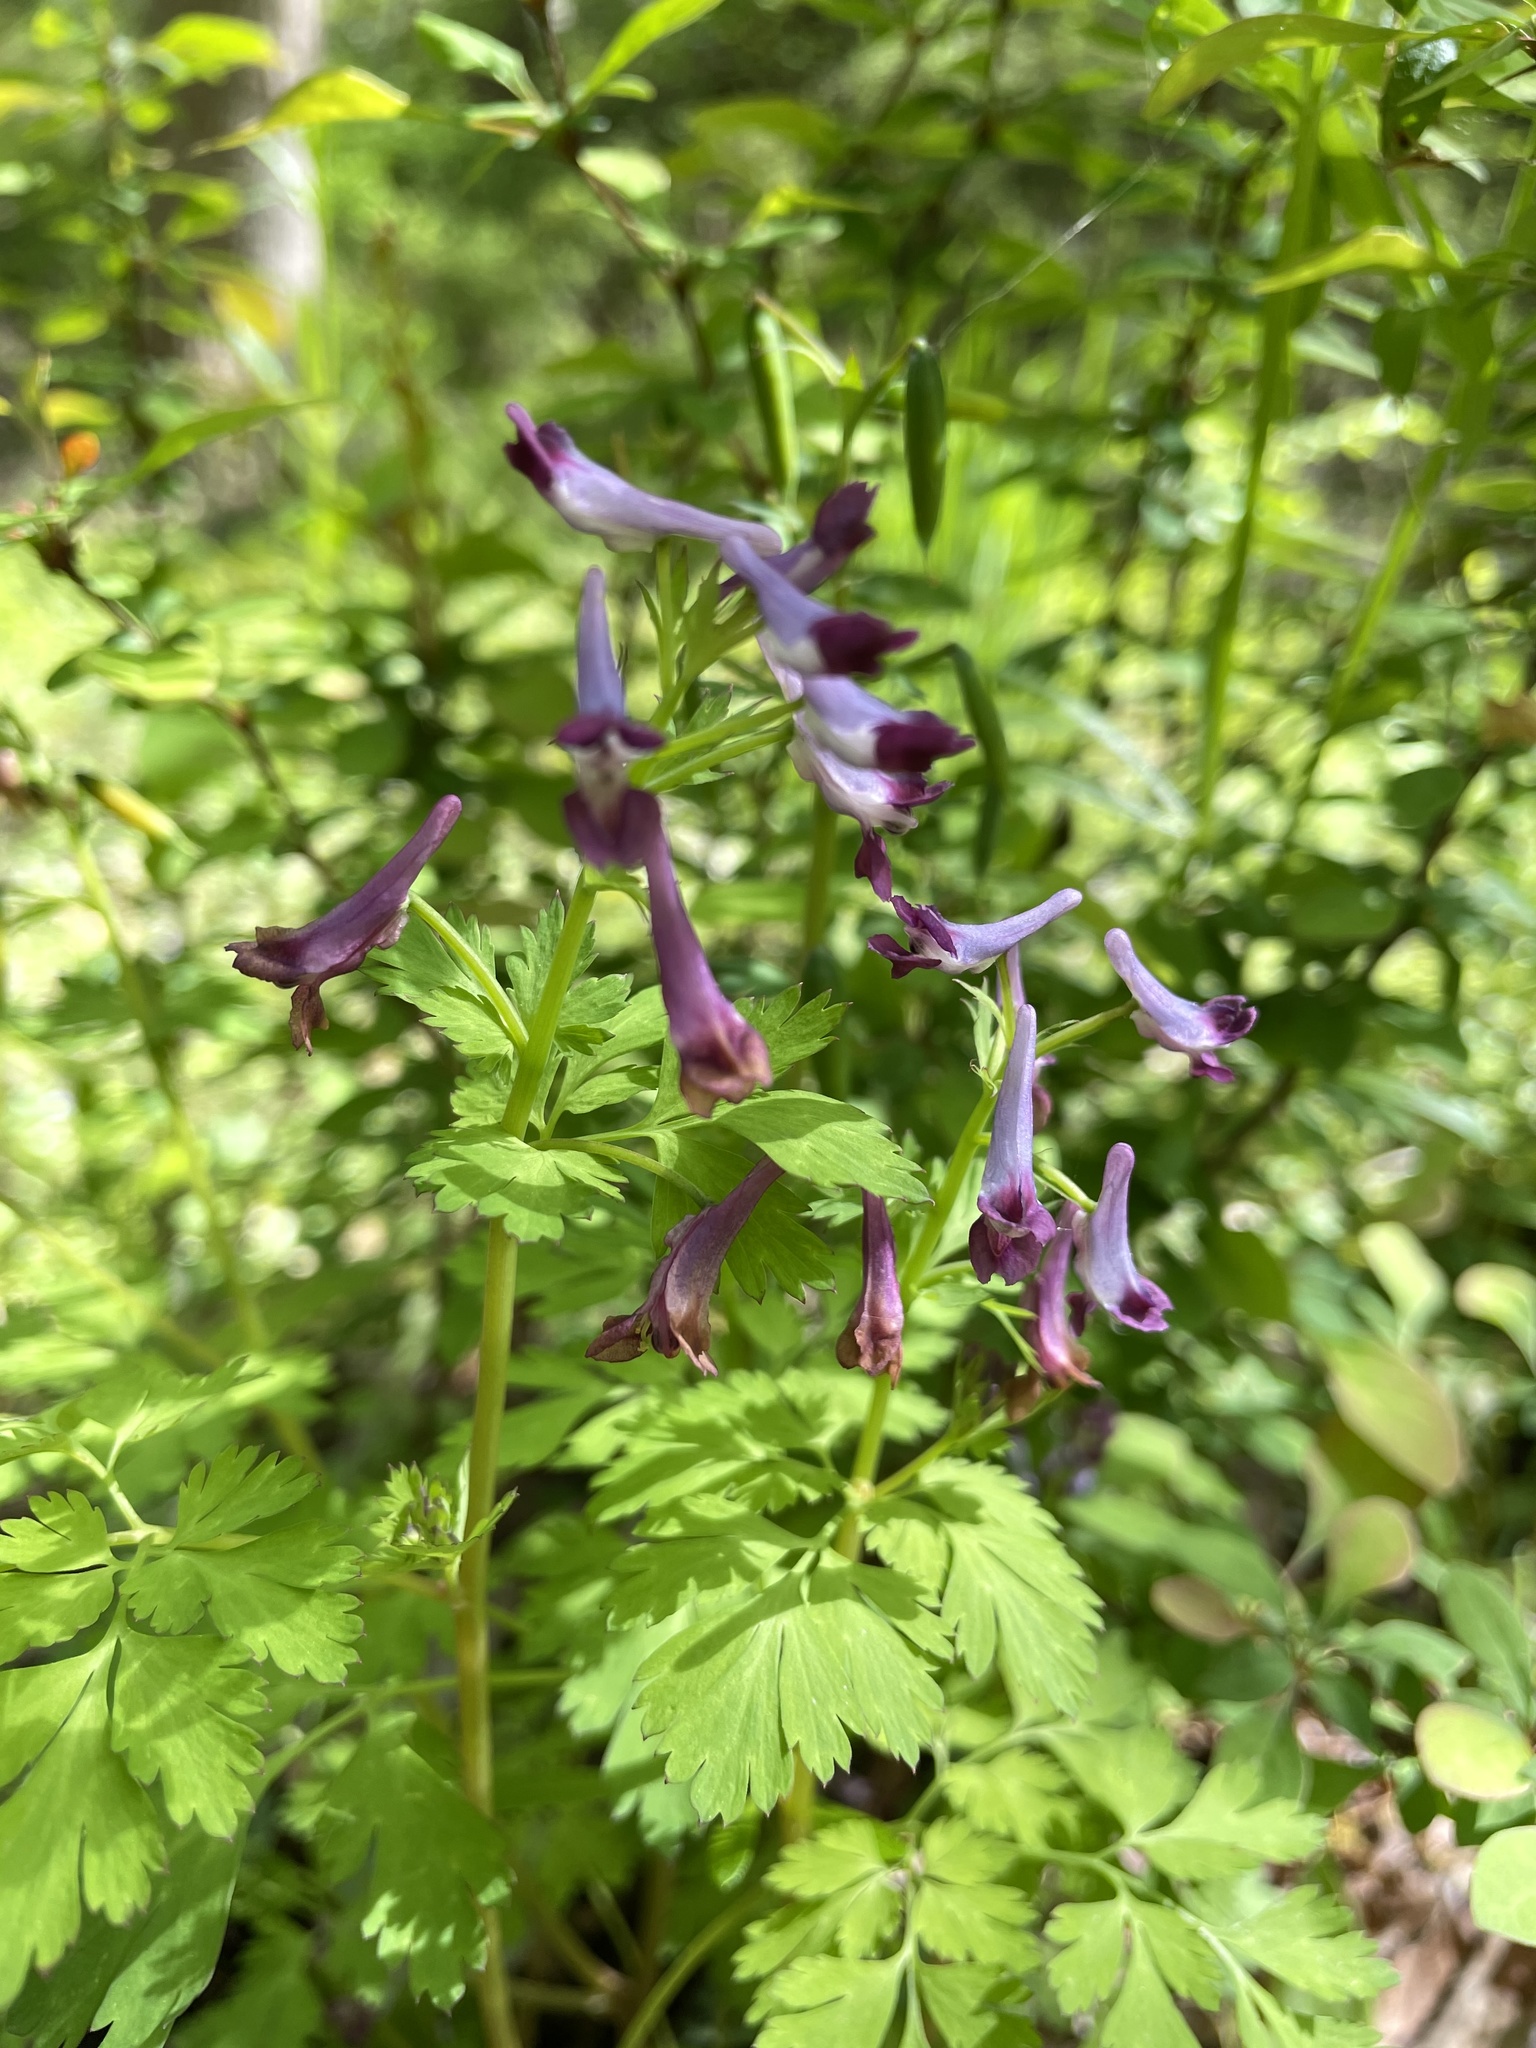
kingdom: Plantae
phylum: Tracheophyta
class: Magnoliopsida
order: Ranunculales
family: Papaveraceae
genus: Corydalis
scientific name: Corydalis incisa
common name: Incised fumewort
